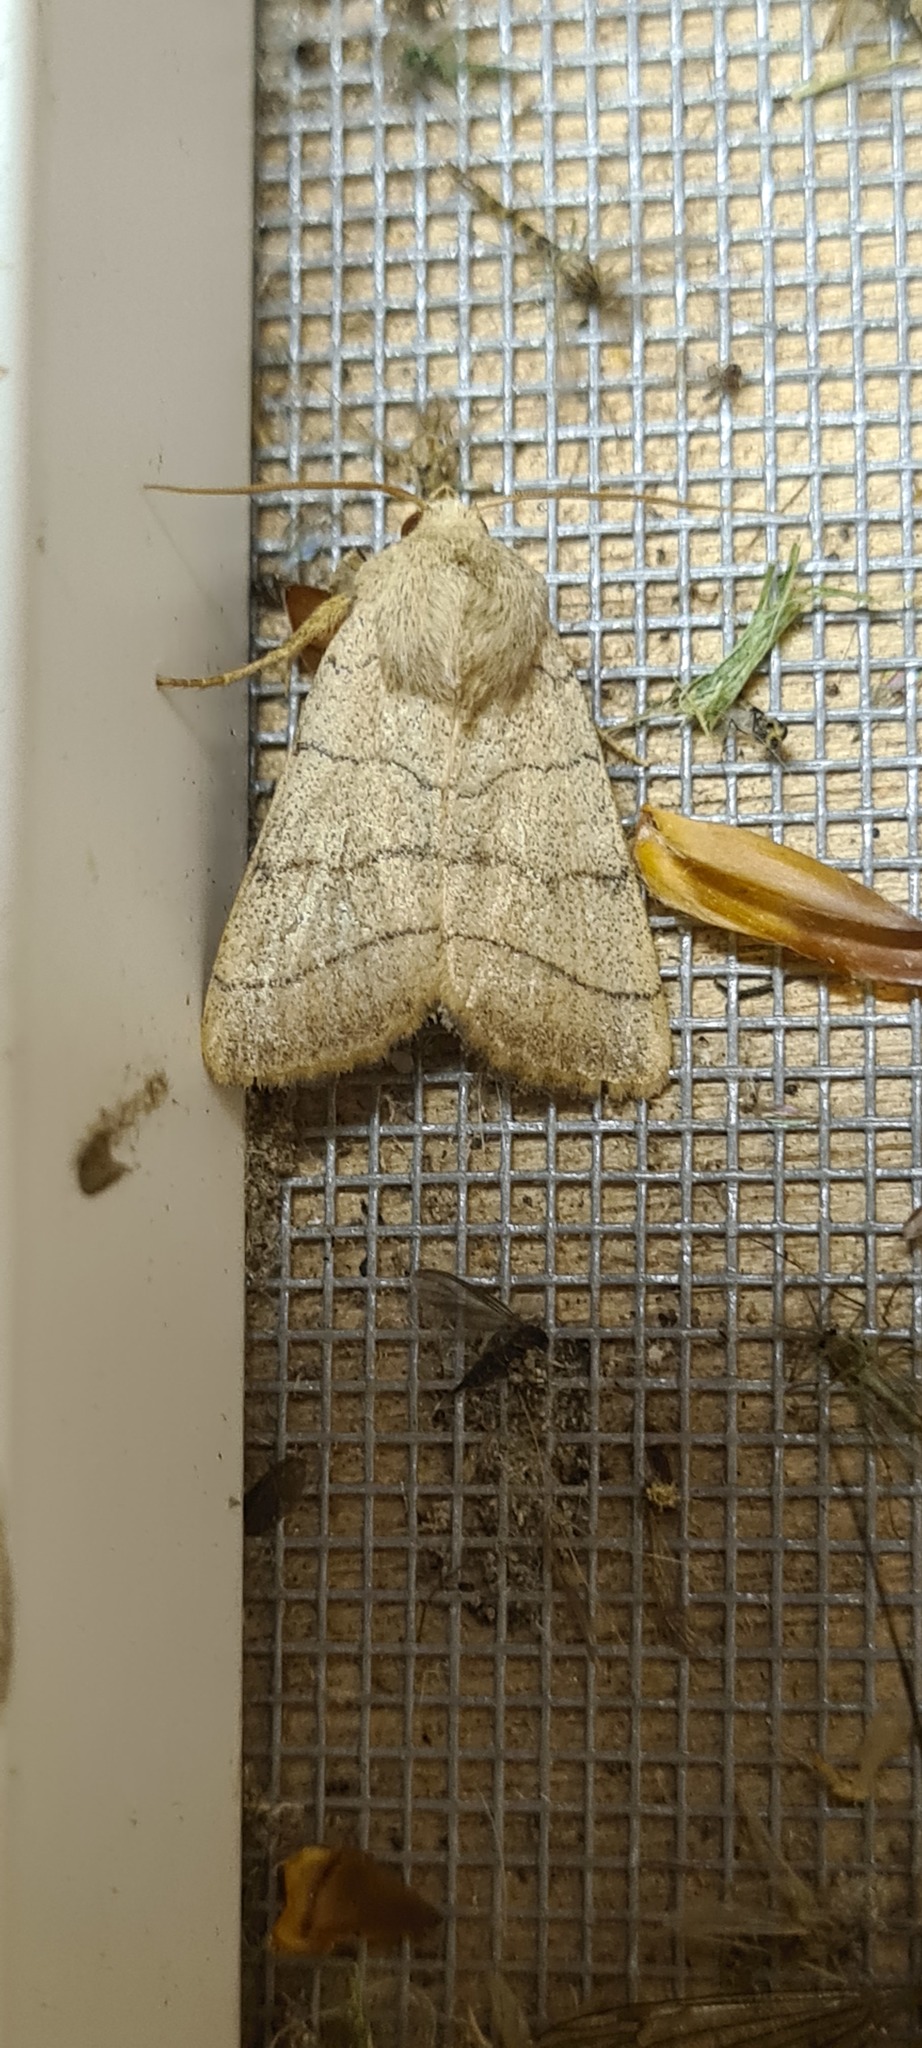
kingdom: Animalia
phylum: Arthropoda
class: Insecta
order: Lepidoptera
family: Noctuidae
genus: Charanyca
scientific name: Charanyca trigrammica
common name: Treble lines
